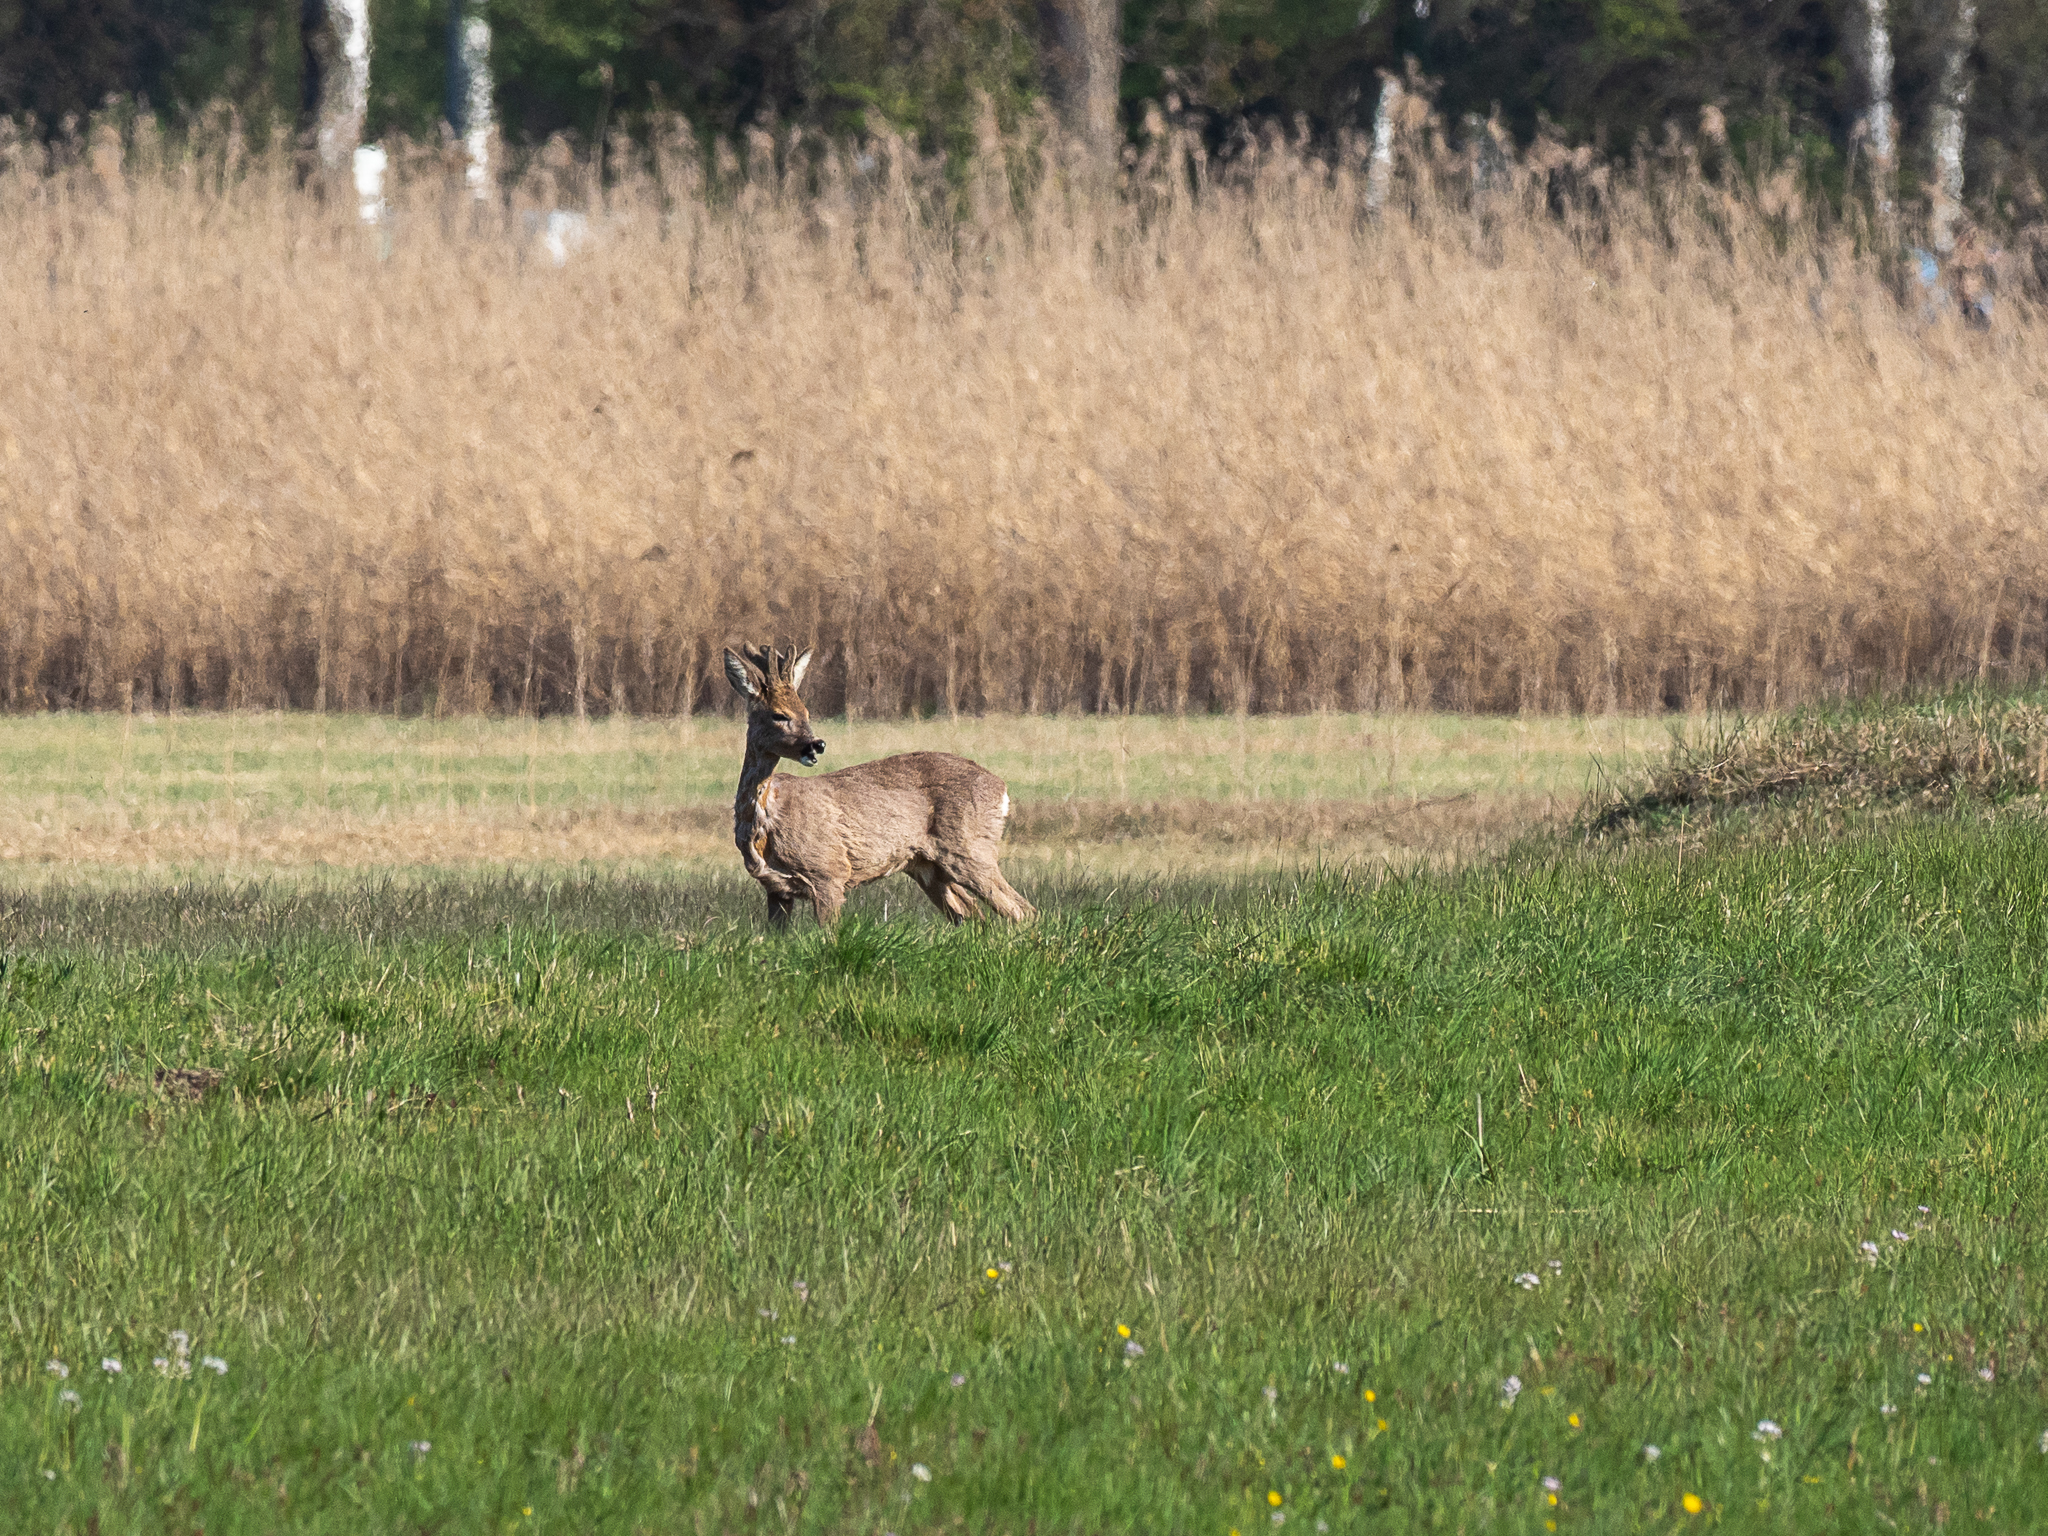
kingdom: Animalia
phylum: Chordata
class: Mammalia
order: Artiodactyla
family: Cervidae
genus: Capreolus
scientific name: Capreolus capreolus
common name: Western roe deer
